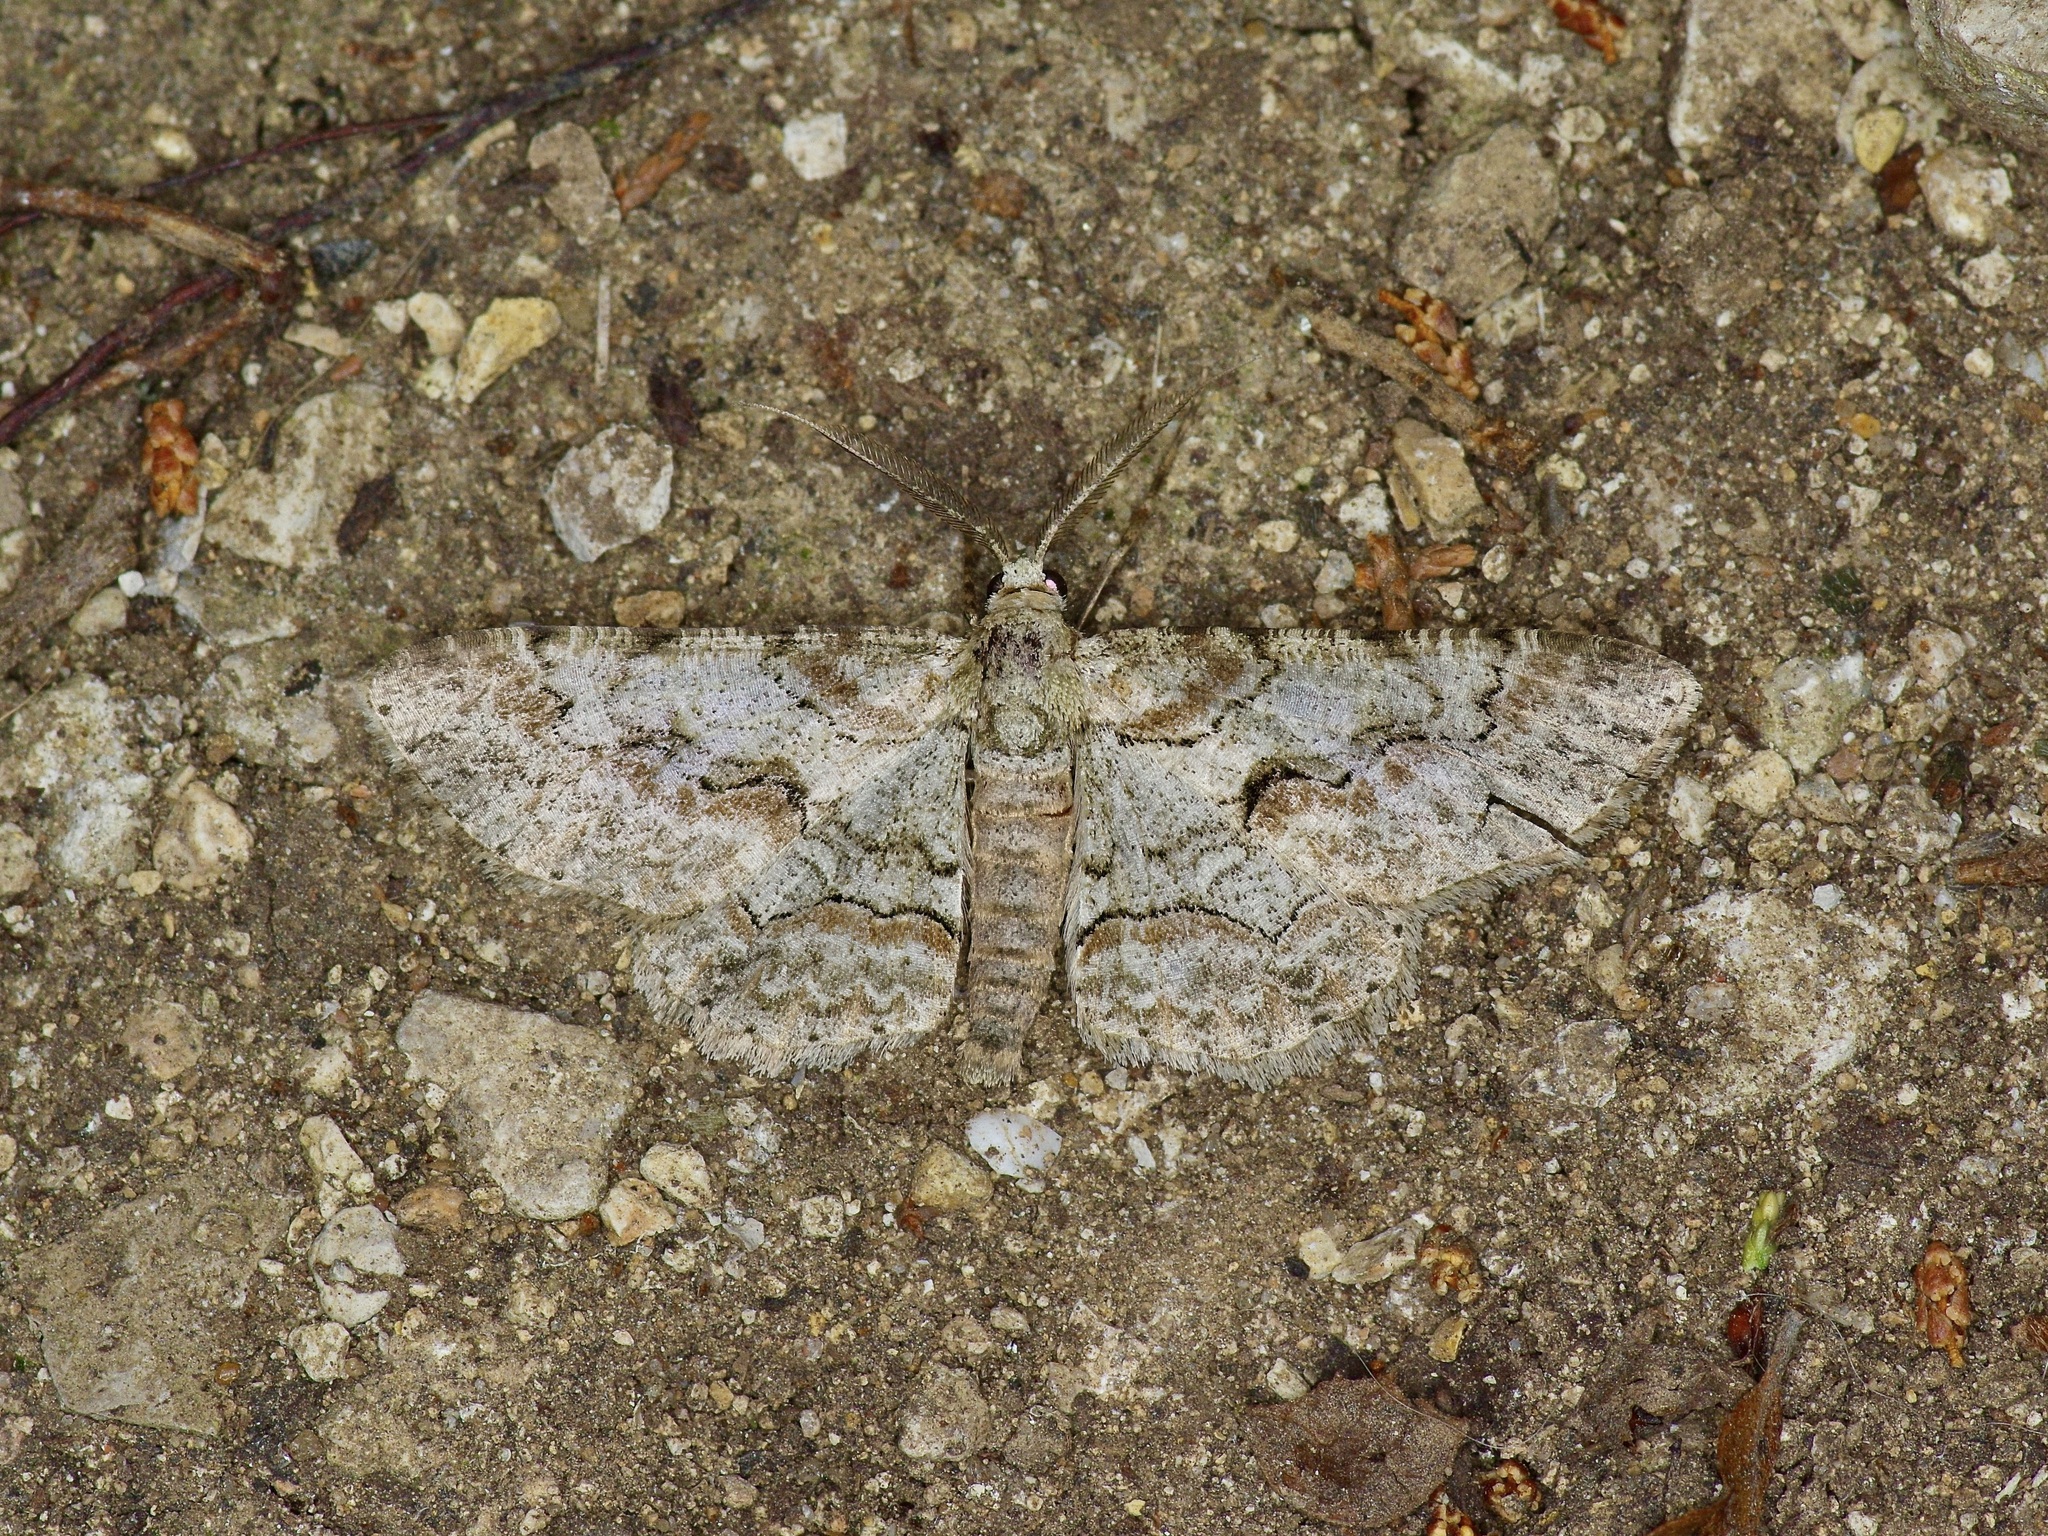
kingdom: Animalia
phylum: Arthropoda
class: Insecta
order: Lepidoptera
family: Geometridae
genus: Iridopsis
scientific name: Iridopsis defectaria
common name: Brown-shaded gray
